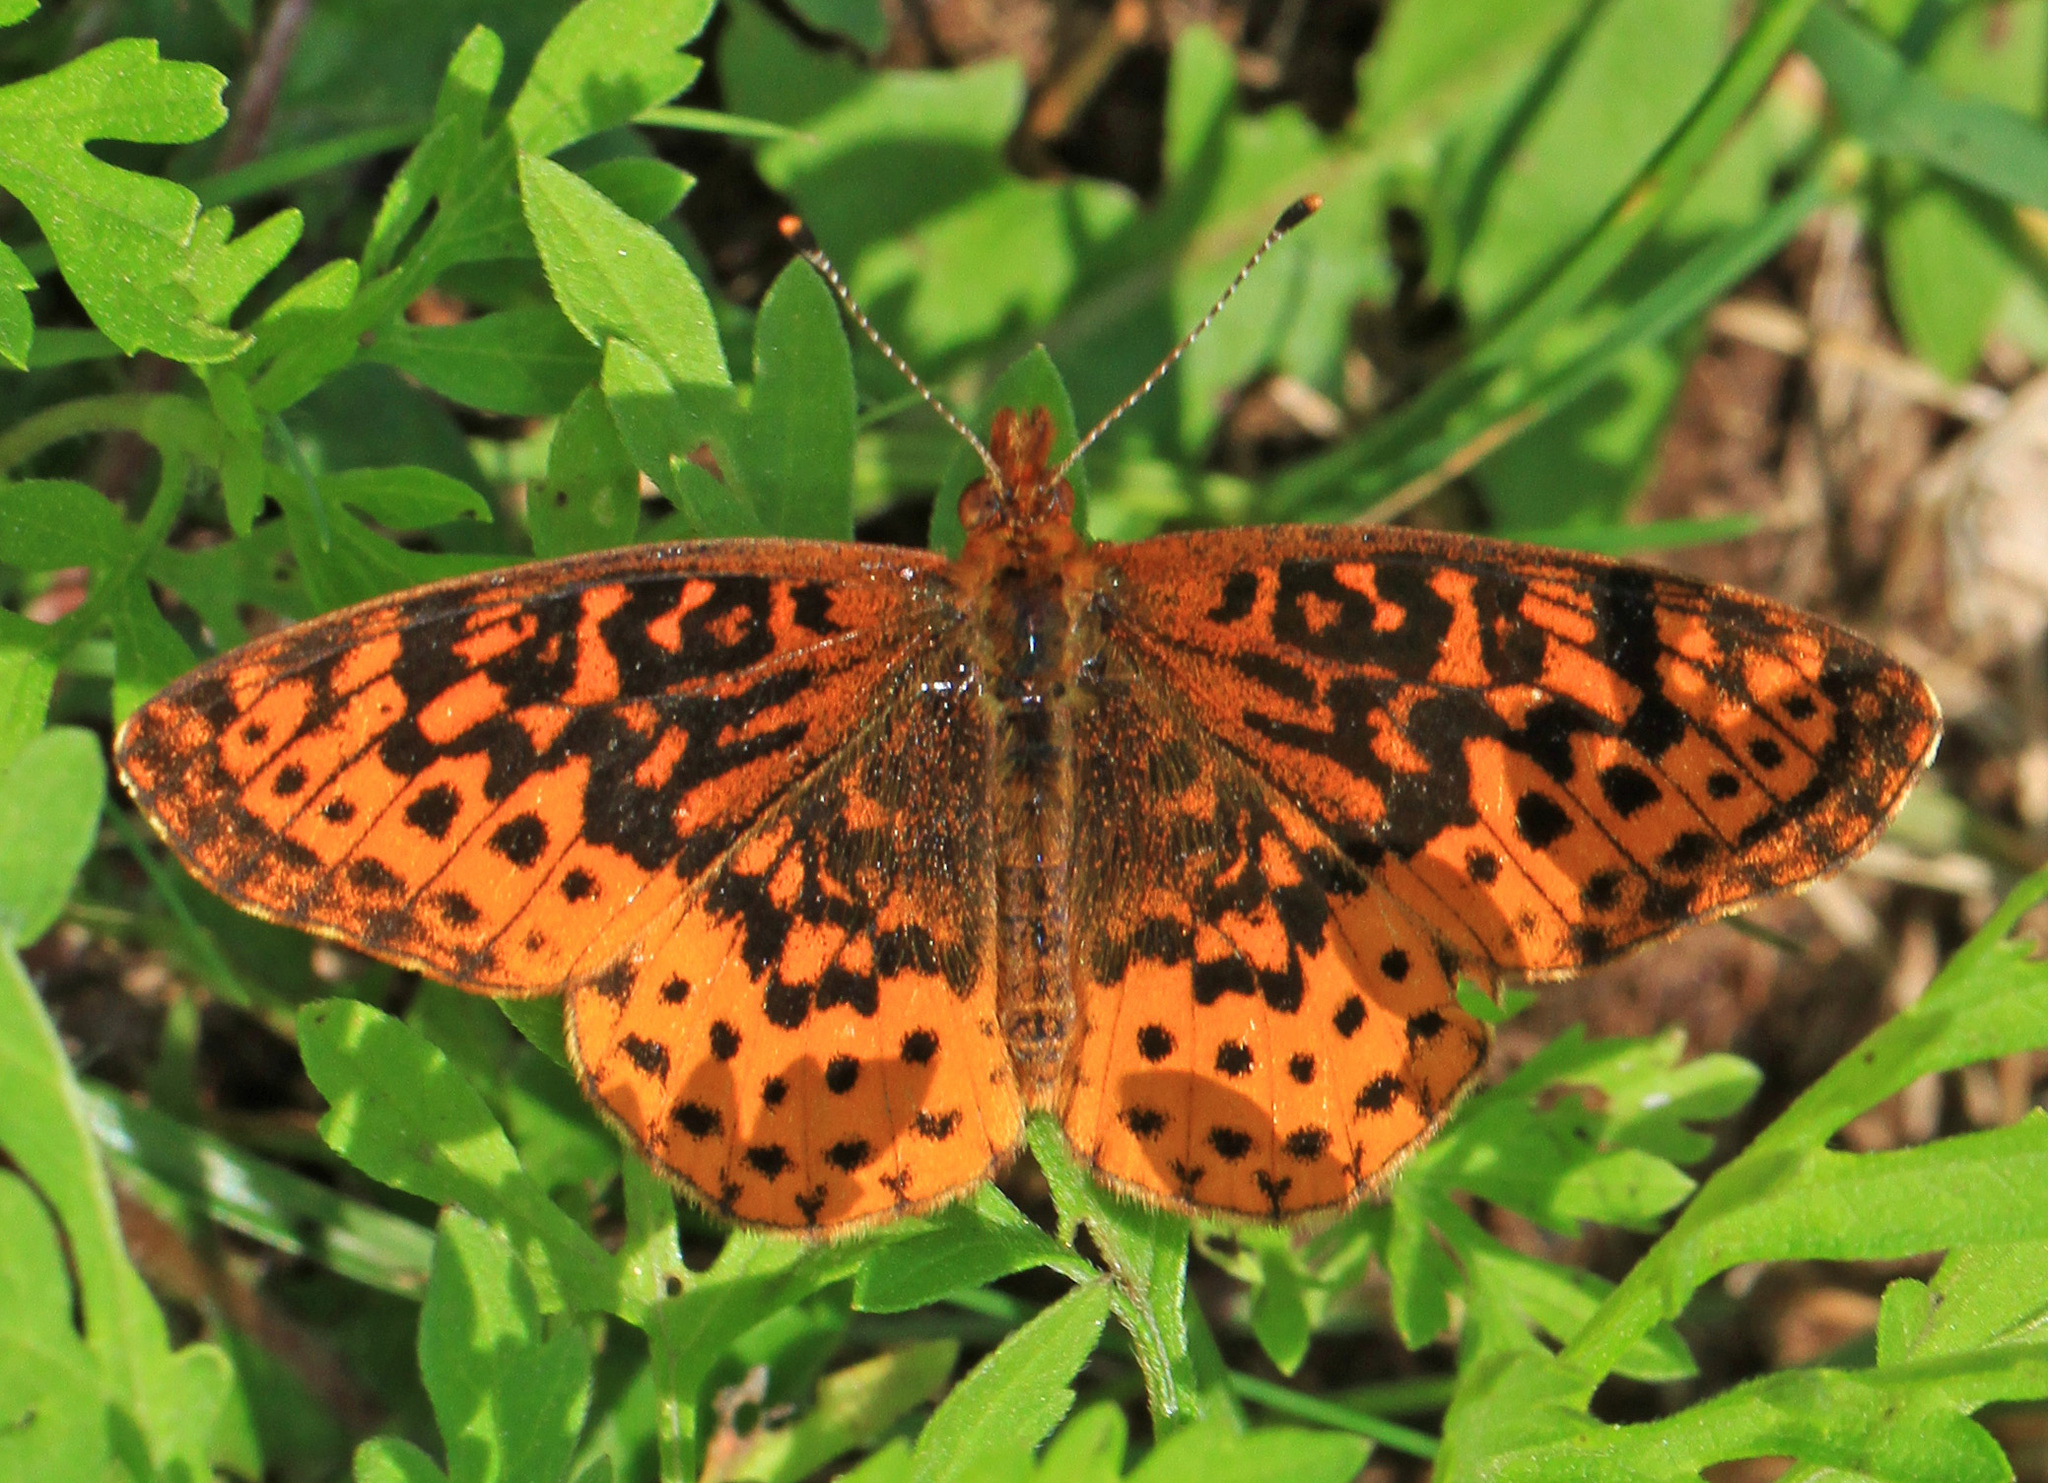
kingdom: Animalia
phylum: Arthropoda
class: Insecta
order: Lepidoptera
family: Nymphalidae
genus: Clossiana
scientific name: Clossiana toddi
